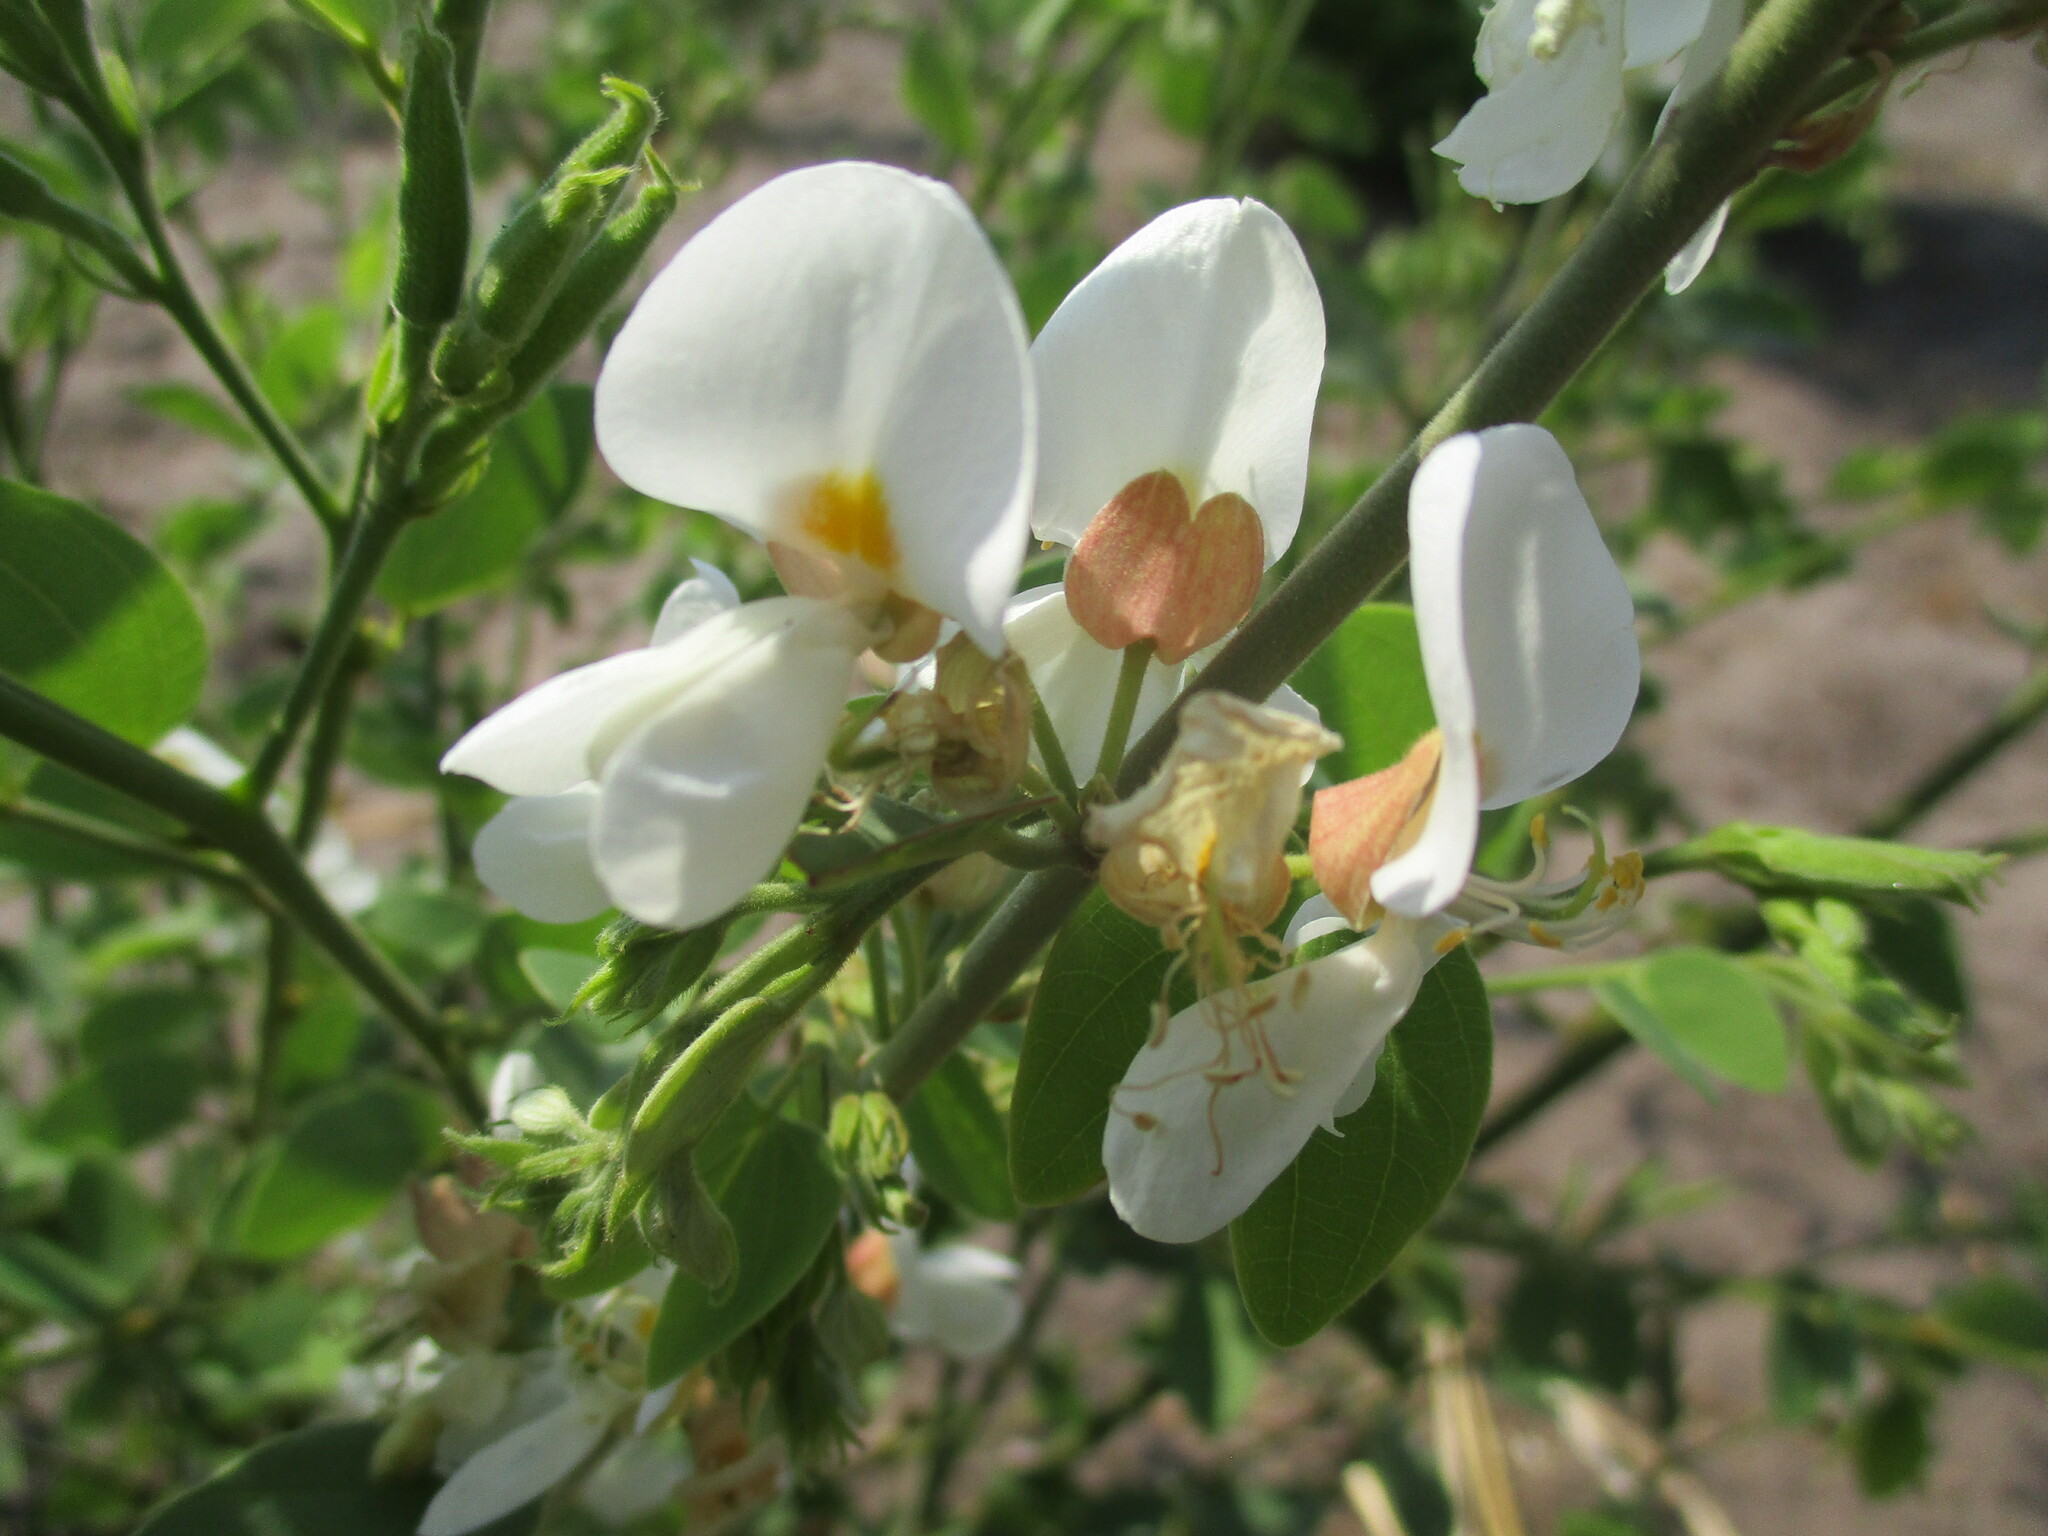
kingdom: Plantae
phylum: Tracheophyta
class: Magnoliopsida
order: Fabales
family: Fabaceae
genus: Baphia
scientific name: Baphia massaiensis
